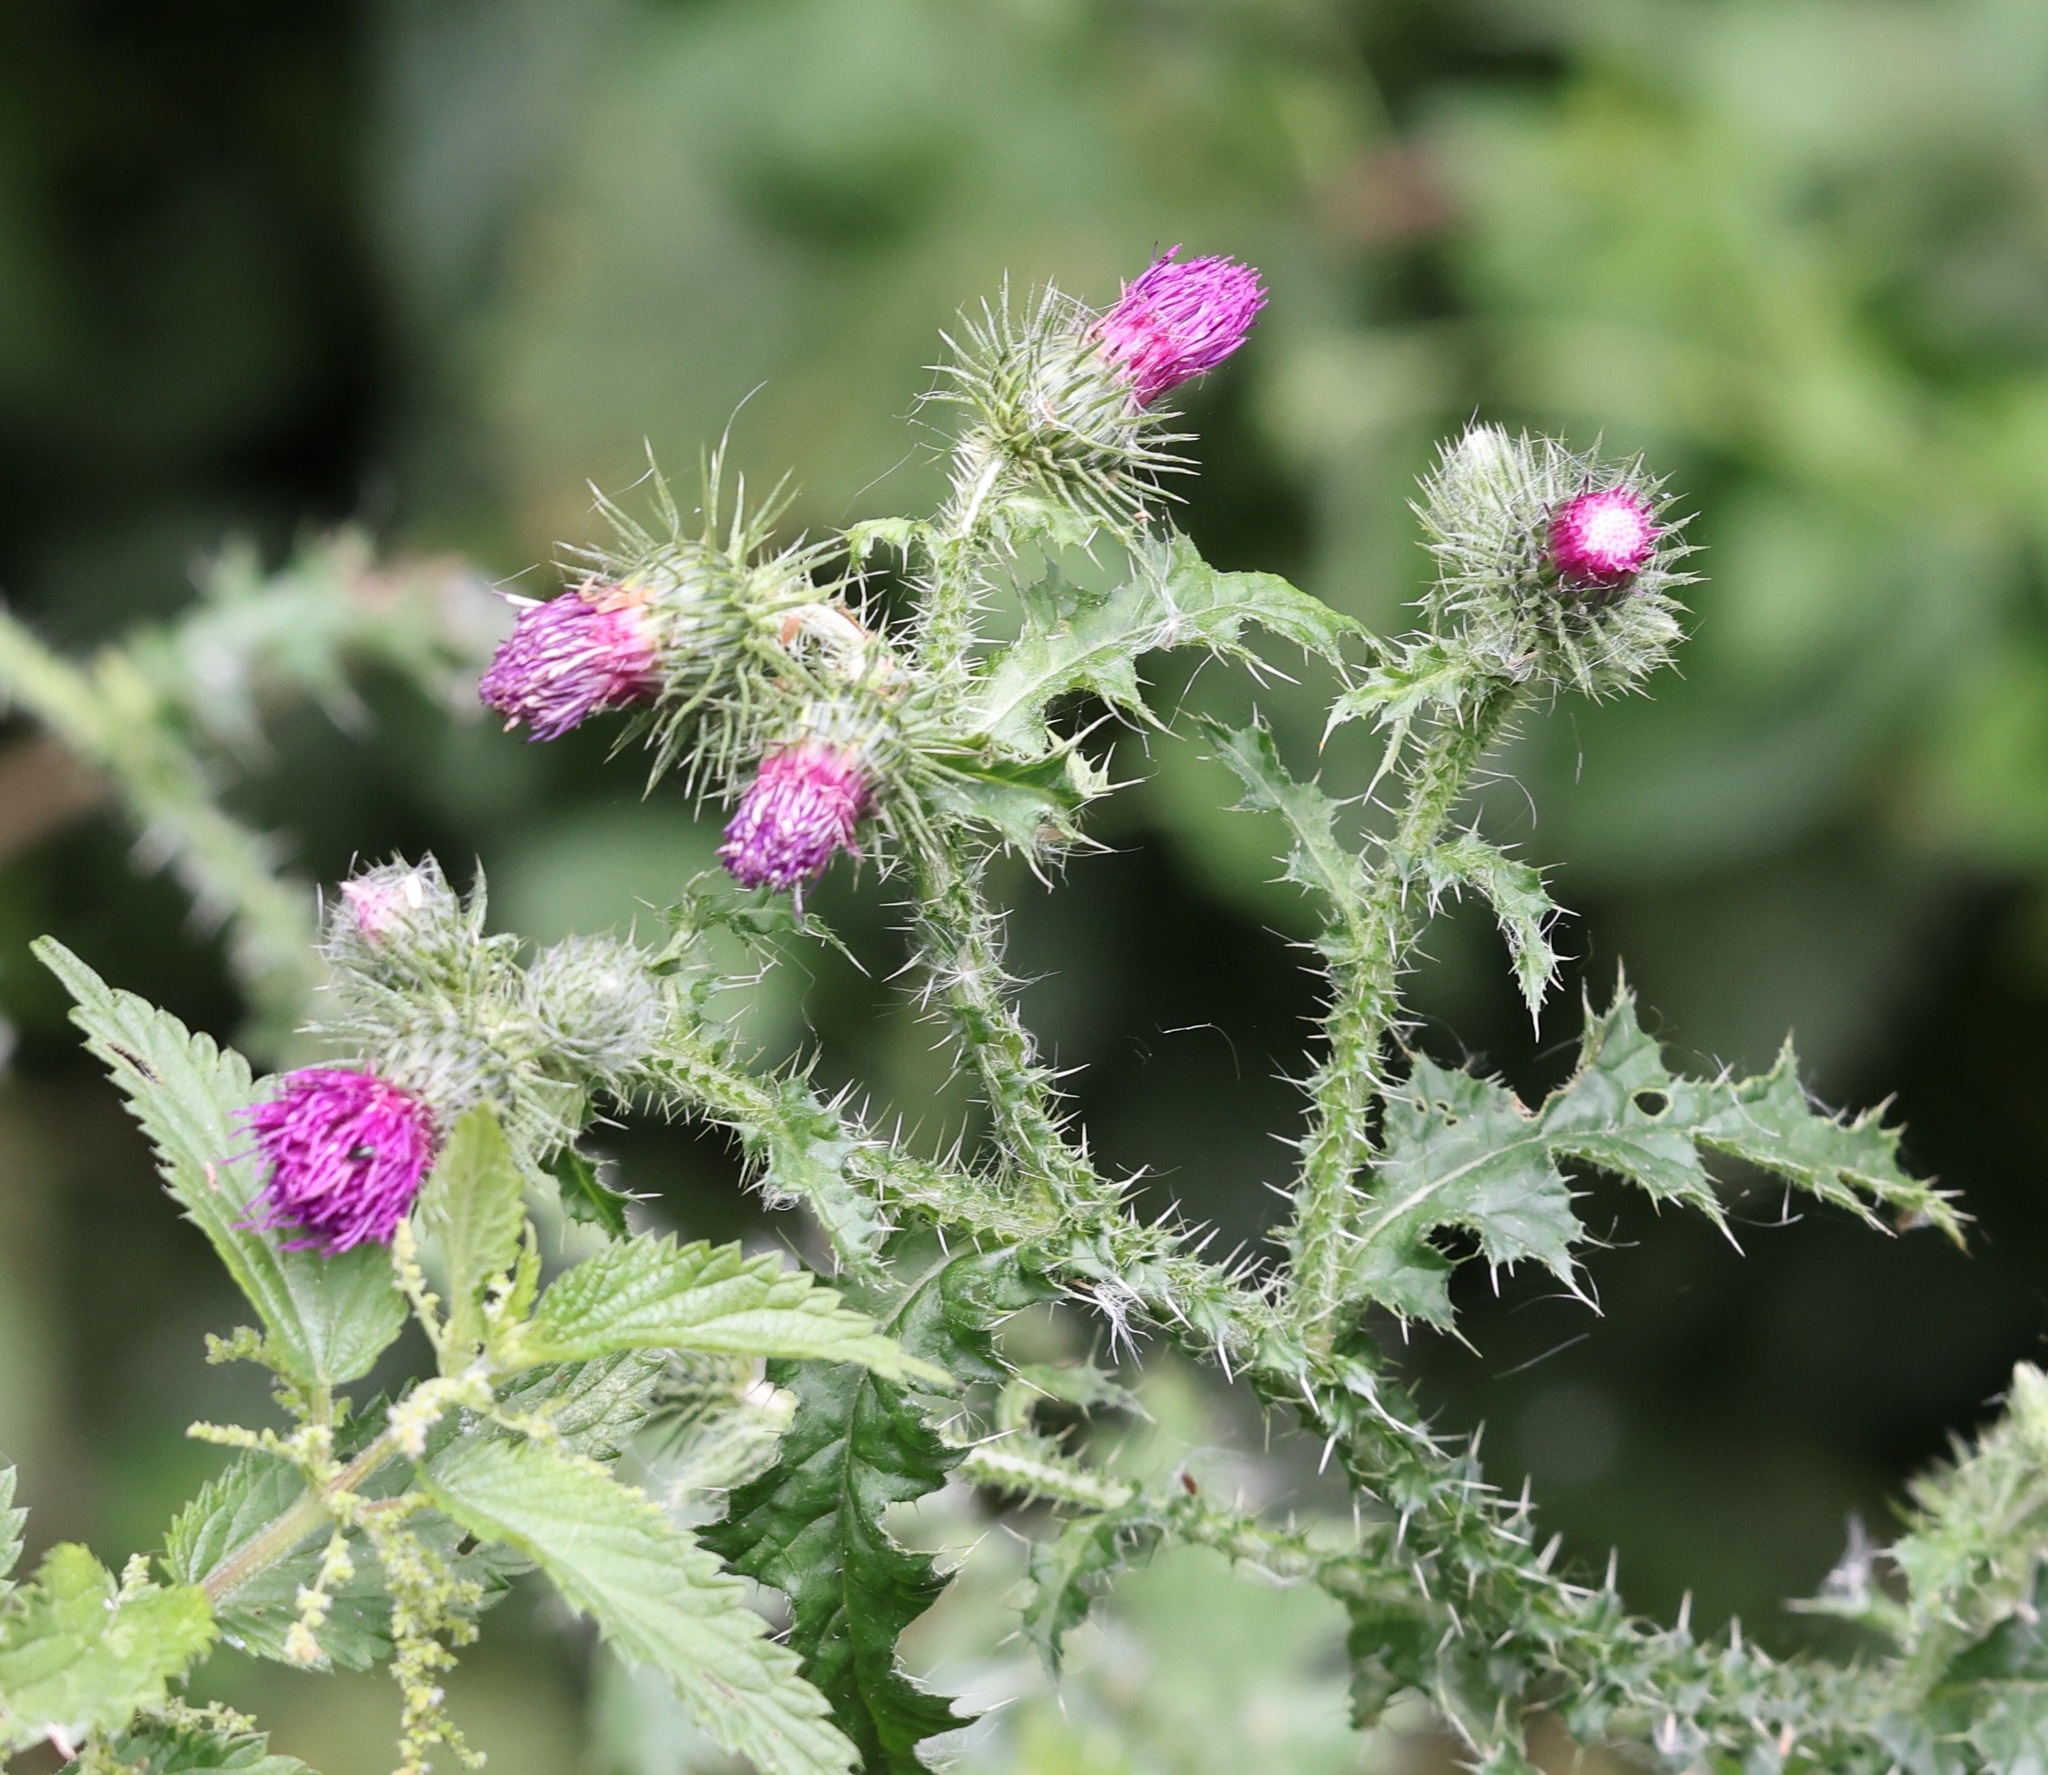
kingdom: Plantae
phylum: Tracheophyta
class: Magnoliopsida
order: Asterales
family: Asteraceae
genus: Carduus
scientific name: Carduus crispus
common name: Welted thistle
